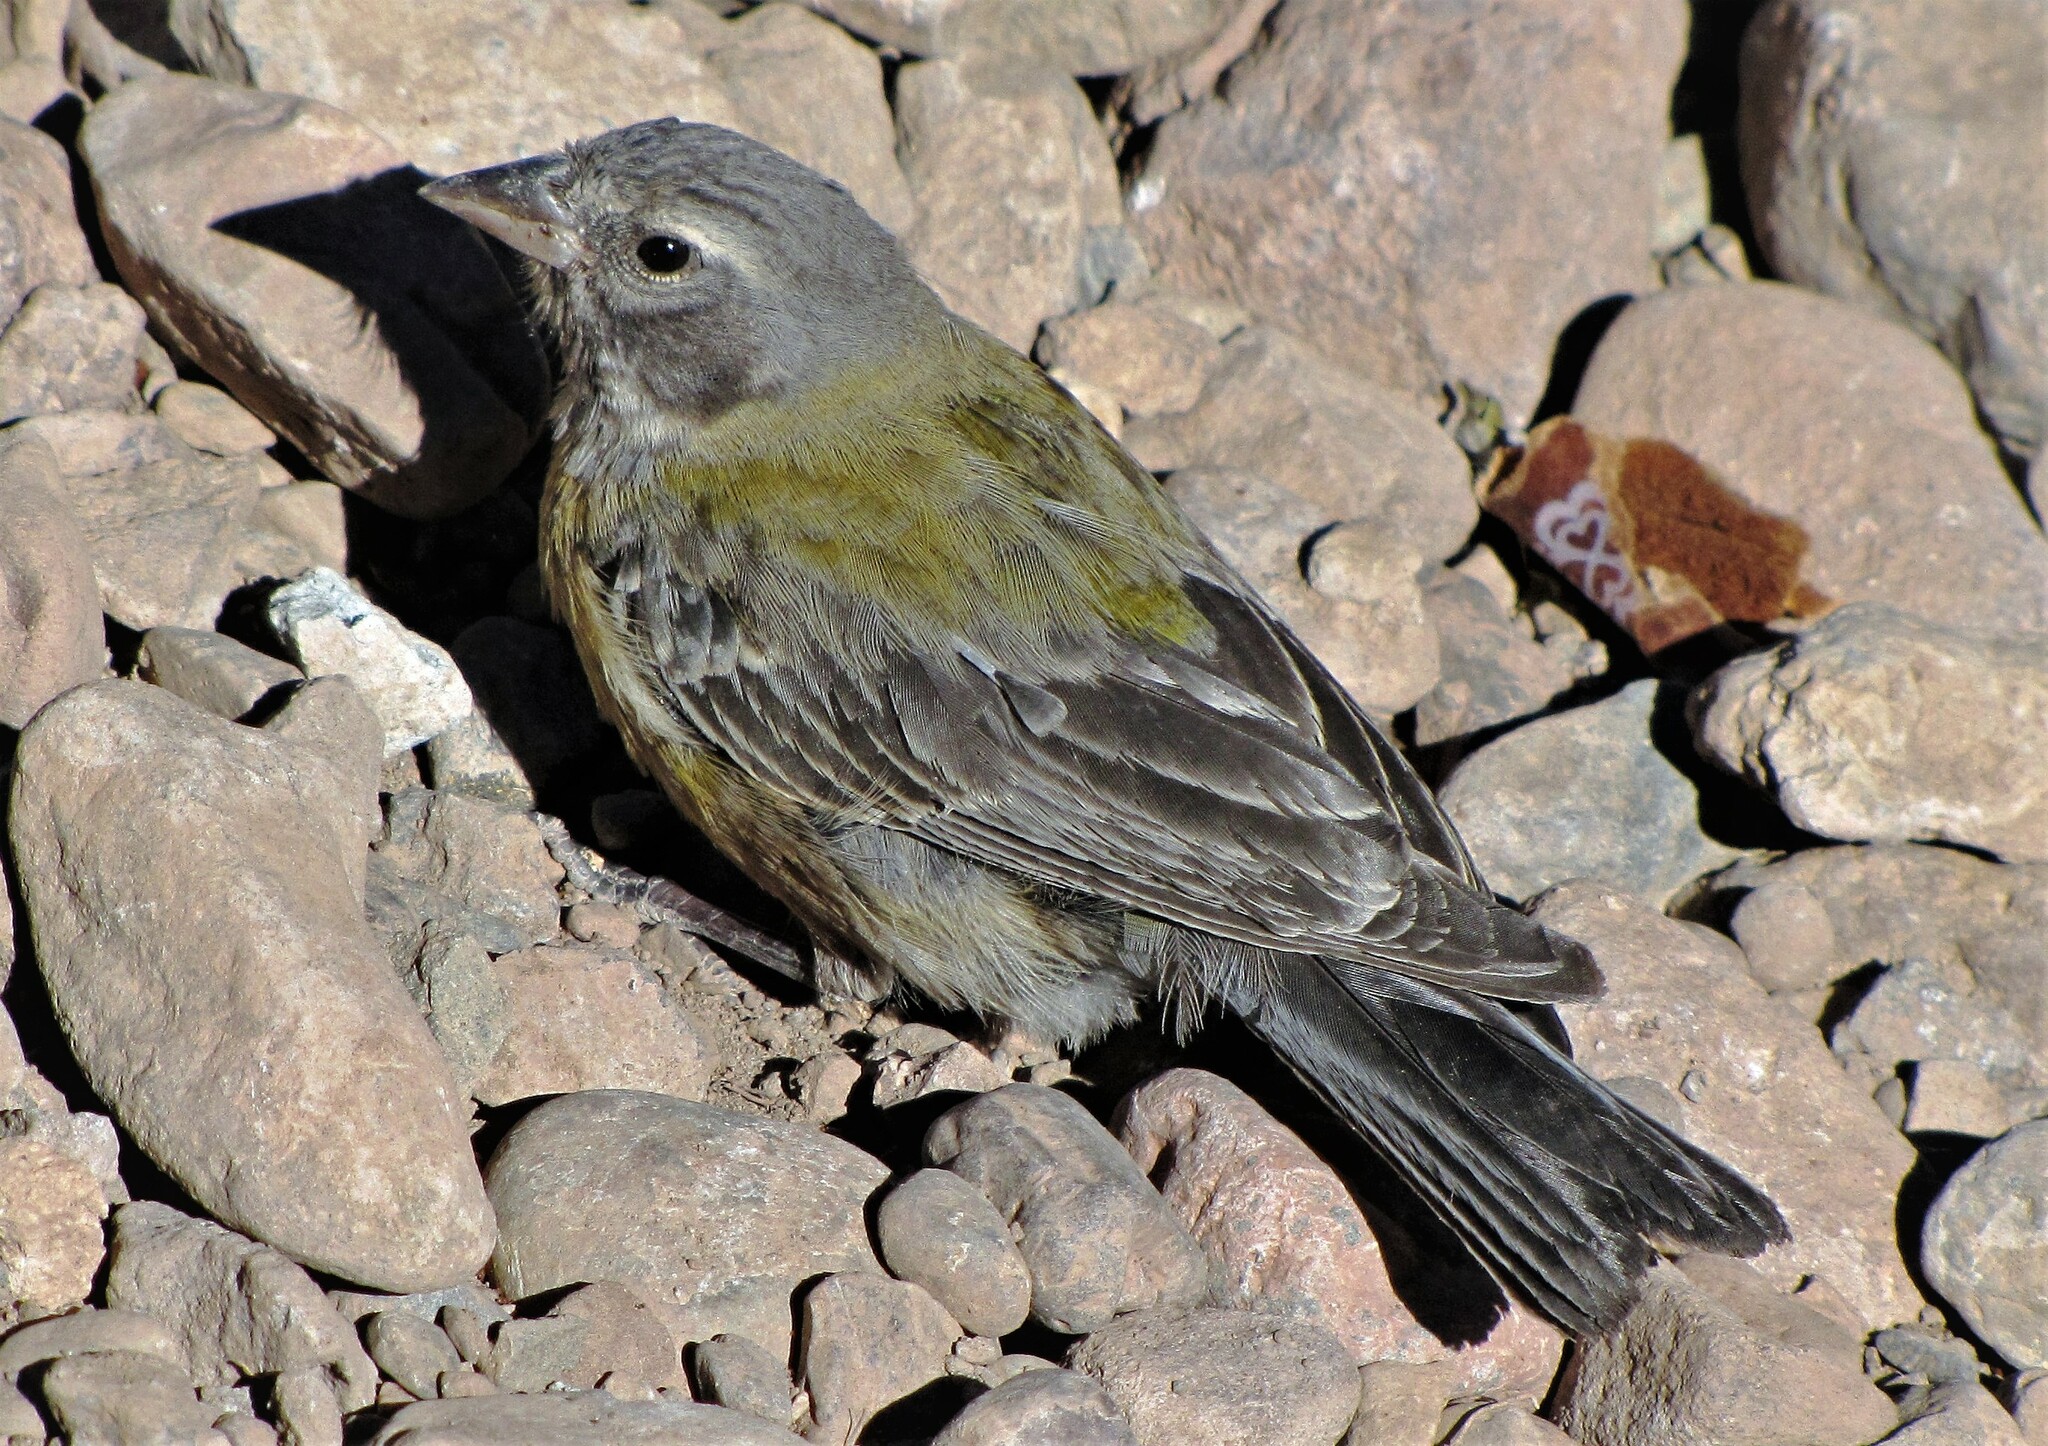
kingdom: Animalia
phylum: Chordata
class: Aves
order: Passeriformes
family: Thraupidae
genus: Phrygilus
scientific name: Phrygilus gayi
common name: Grey-hooded sierra finch
